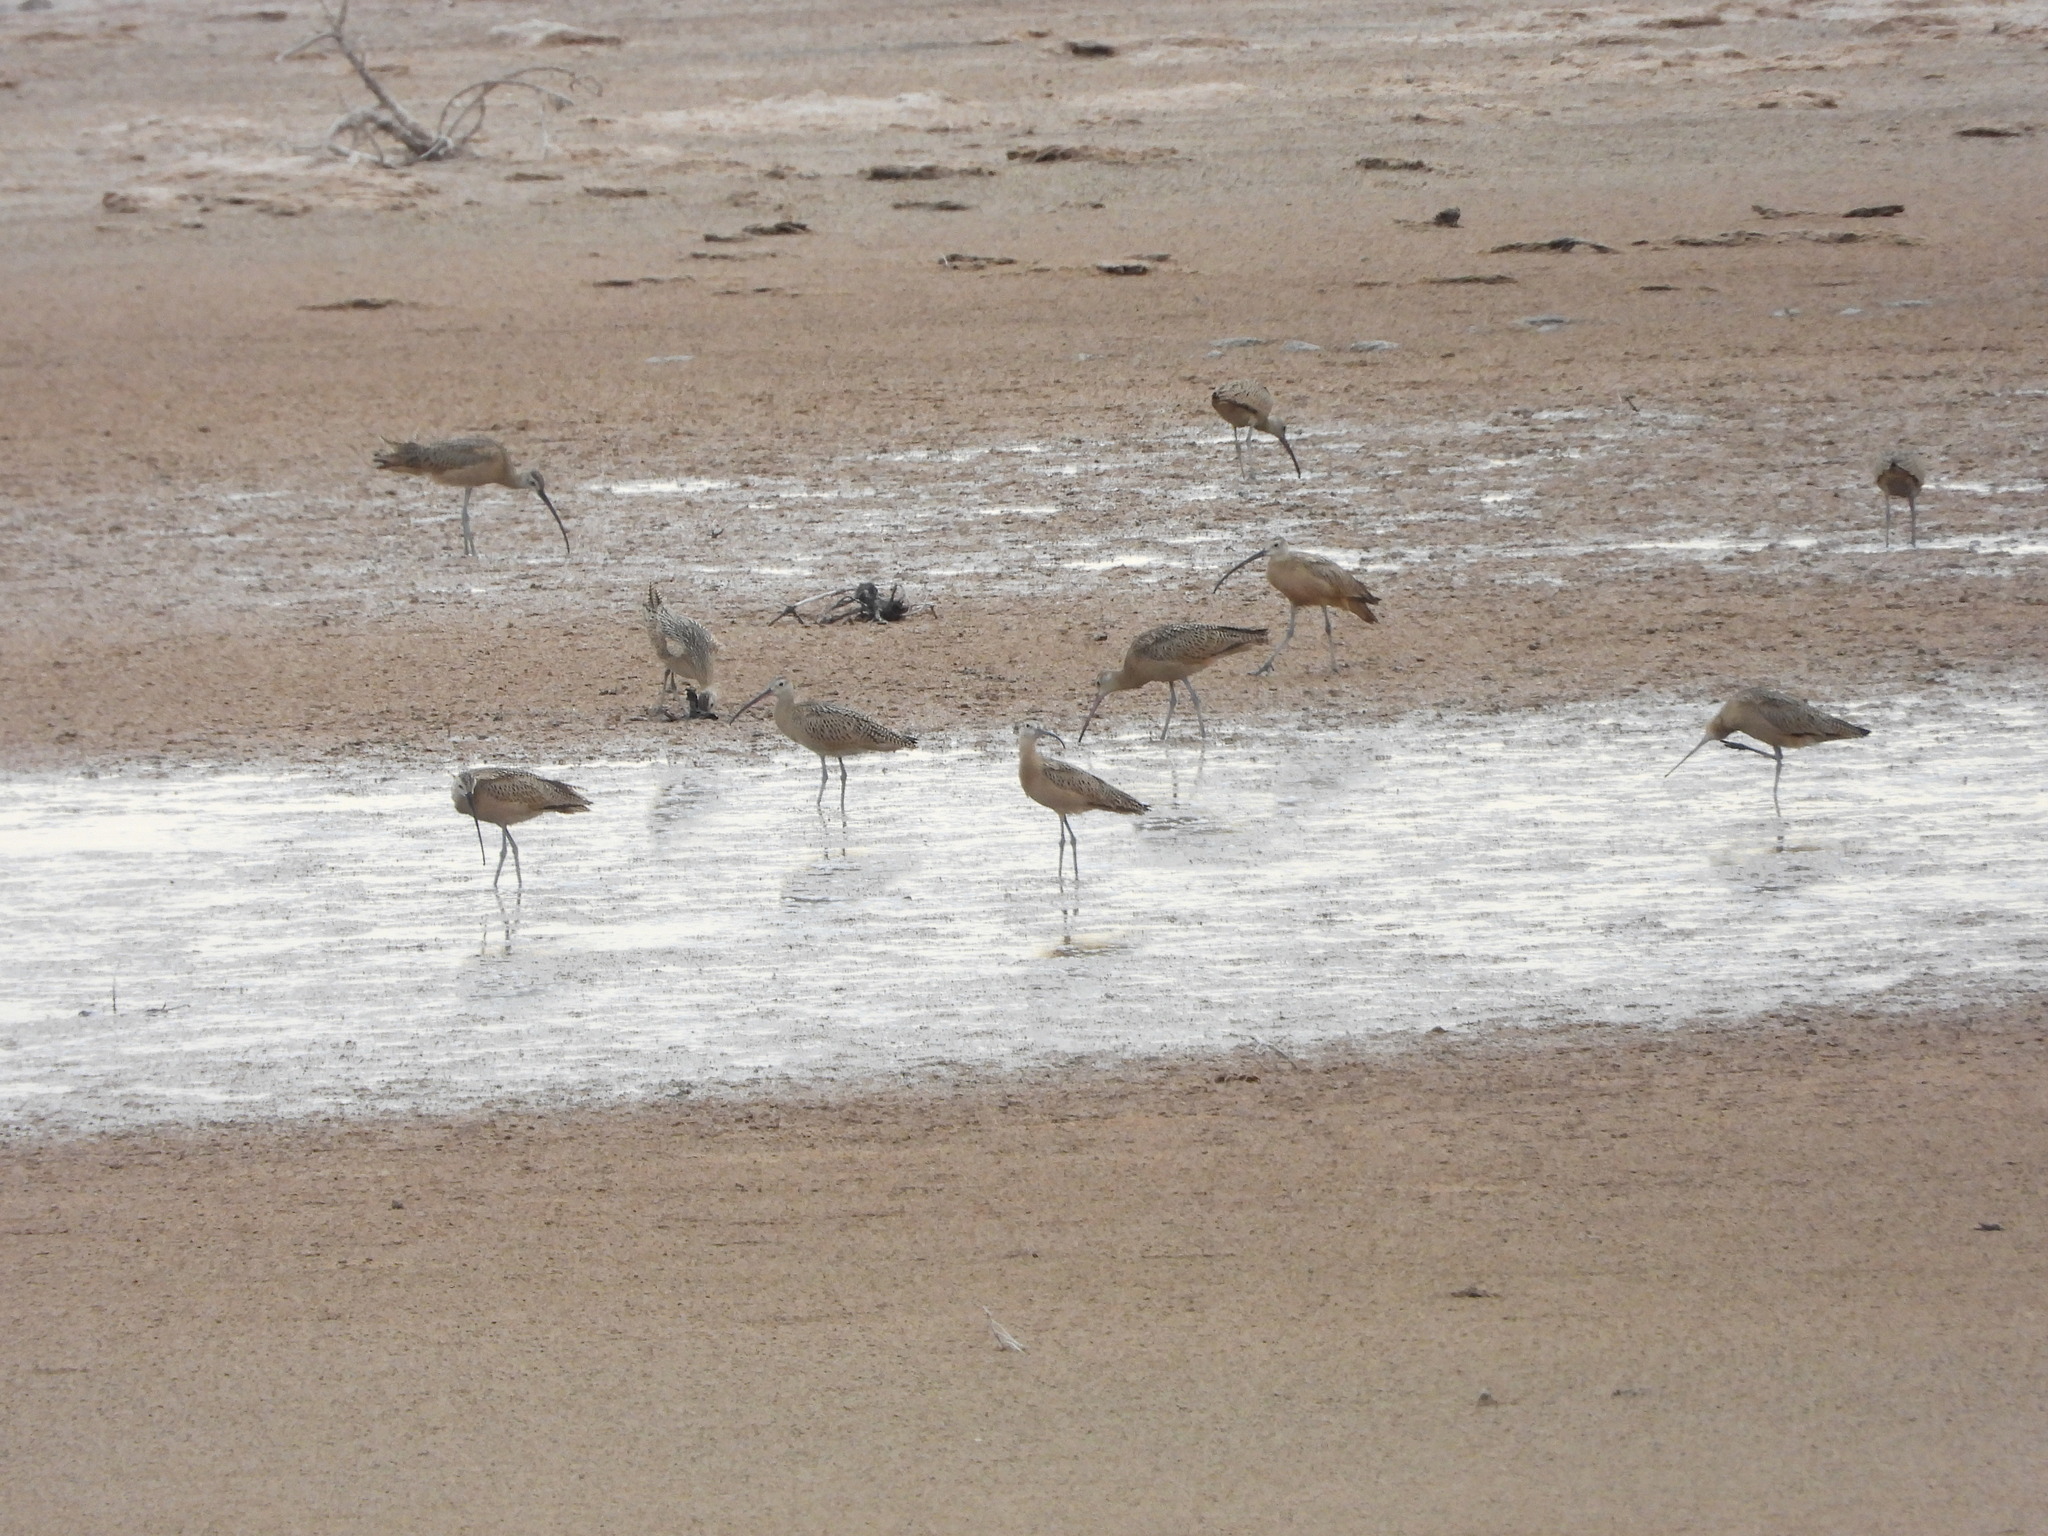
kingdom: Animalia
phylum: Chordata
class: Aves
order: Charadriiformes
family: Scolopacidae
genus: Numenius
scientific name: Numenius americanus
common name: Long-billed curlew
